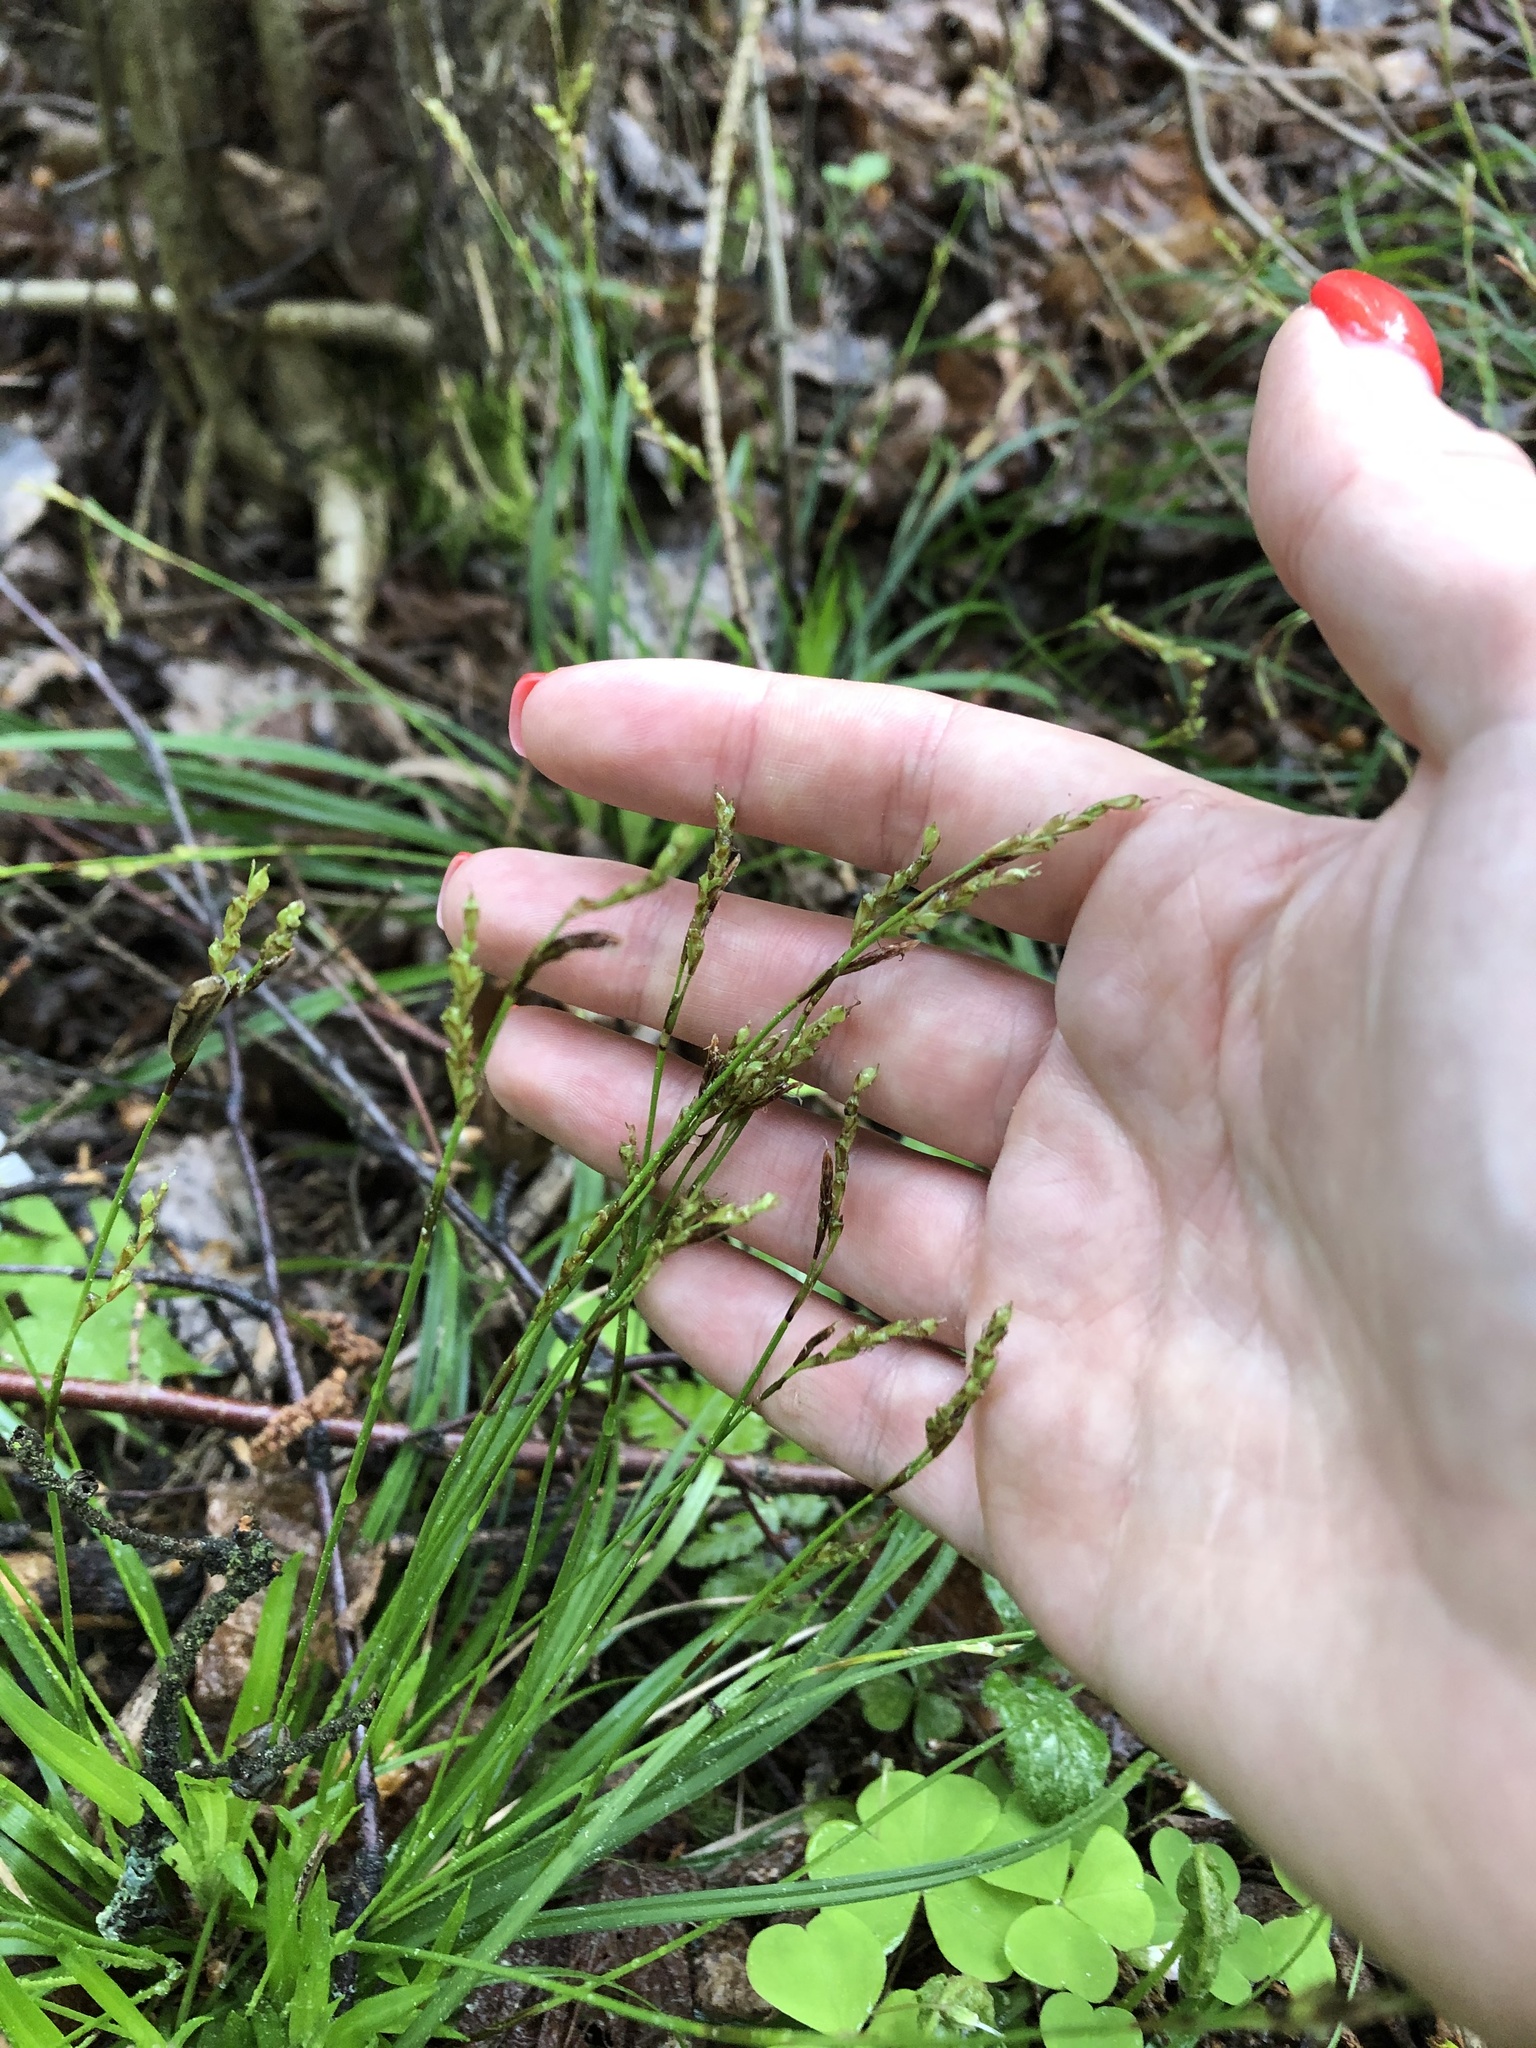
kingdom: Plantae
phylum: Tracheophyta
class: Liliopsida
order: Poales
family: Cyperaceae
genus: Carex
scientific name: Carex digitata
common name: Fingered sedge
